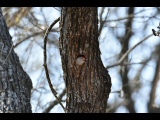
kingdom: Animalia
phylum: Chordata
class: Aves
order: Piciformes
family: Picidae
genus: Melanerpes
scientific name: Melanerpes carolinus
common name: Red-bellied woodpecker
